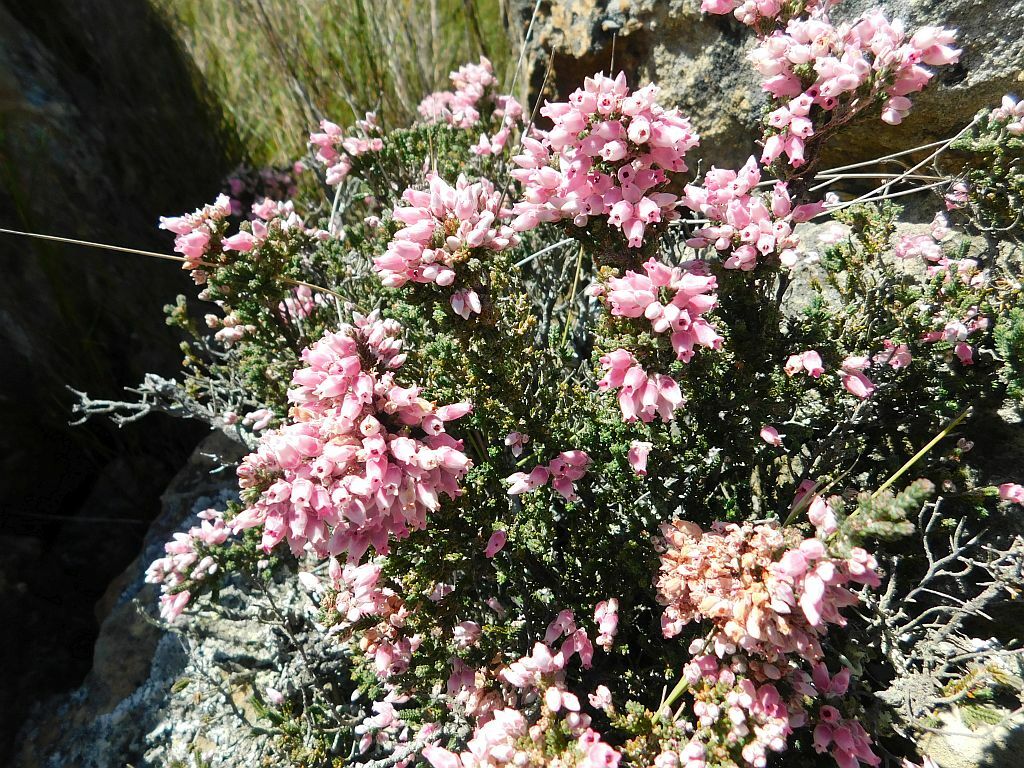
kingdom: Plantae
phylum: Tracheophyta
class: Magnoliopsida
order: Ericales
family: Ericaceae
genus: Erica
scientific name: Erica modesta
